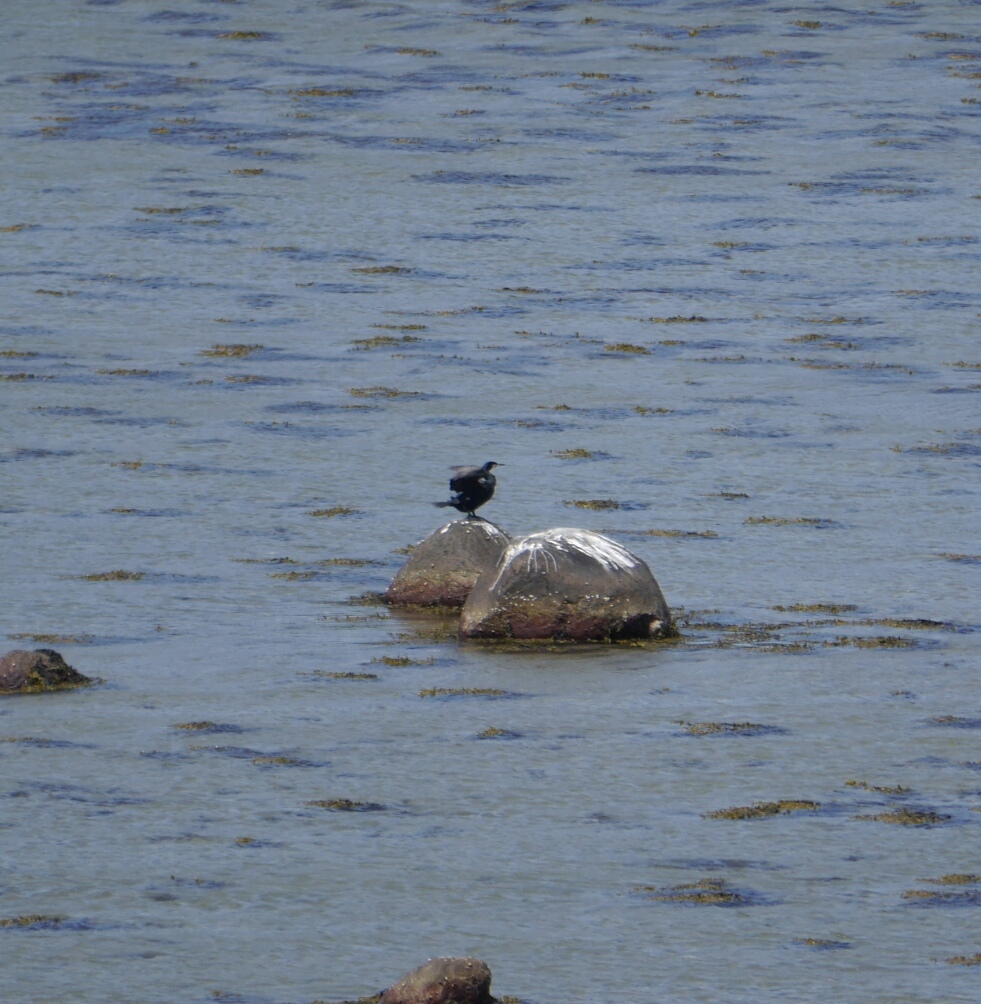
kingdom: Animalia
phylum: Chordata
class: Aves
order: Suliformes
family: Phalacrocoracidae
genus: Phalacrocorax
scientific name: Phalacrocorax carbo
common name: Great cormorant
